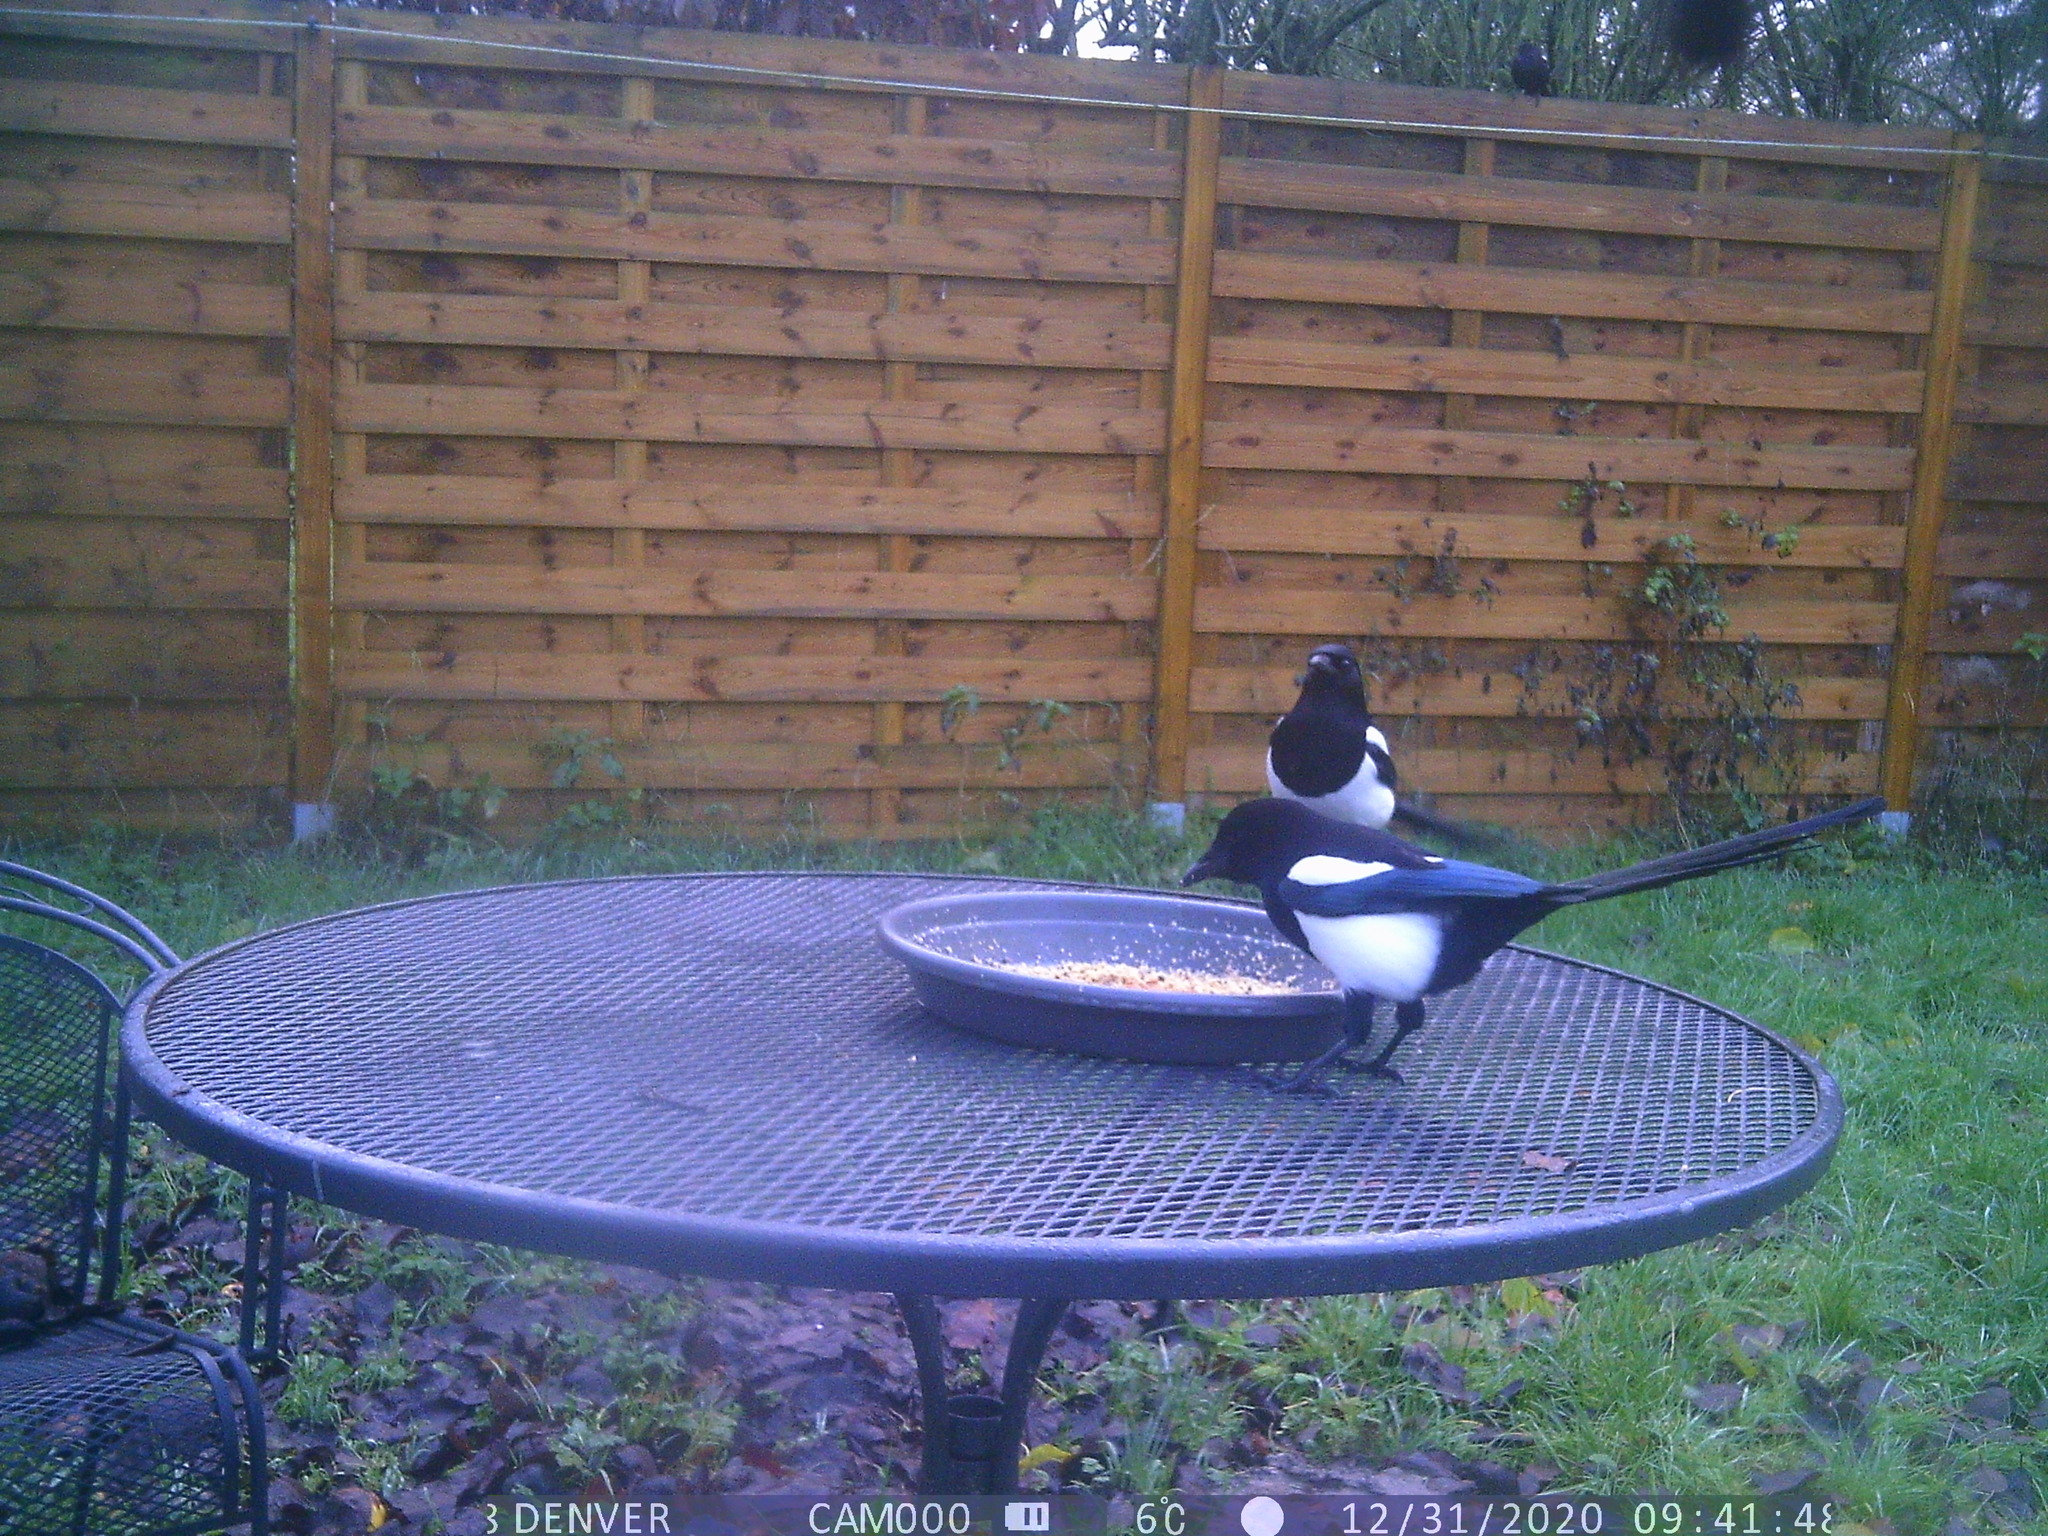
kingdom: Animalia
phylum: Chordata
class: Aves
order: Passeriformes
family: Corvidae
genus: Pica
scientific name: Pica pica
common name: Eurasian magpie
